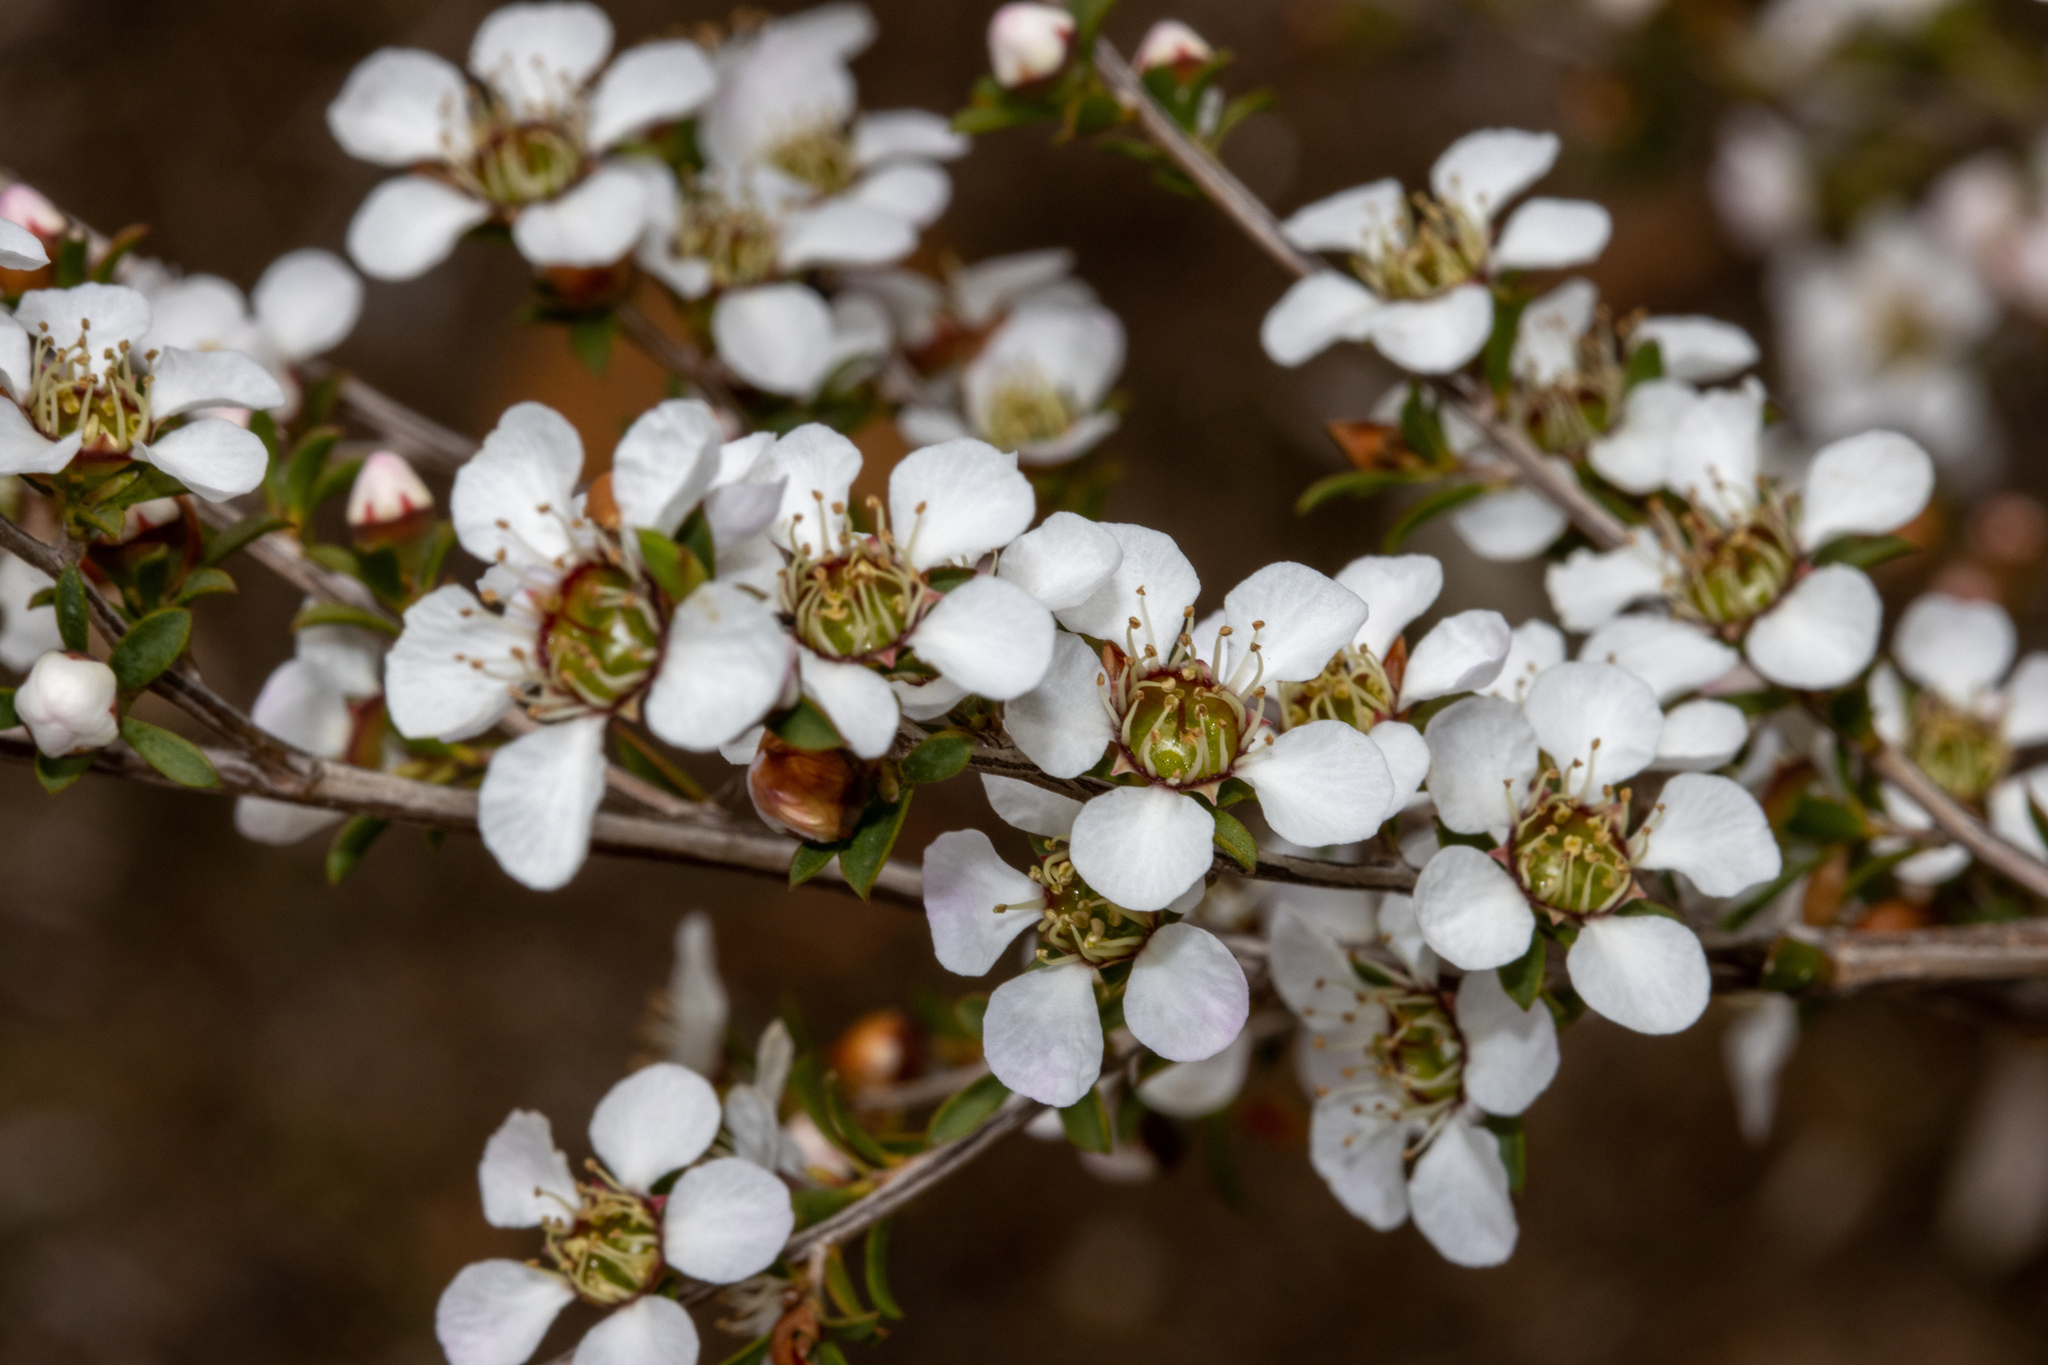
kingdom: Plantae
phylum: Tracheophyta
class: Magnoliopsida
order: Myrtales
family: Myrtaceae
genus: Leptospermum
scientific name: Leptospermum myrsinoides
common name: Heath teatree
